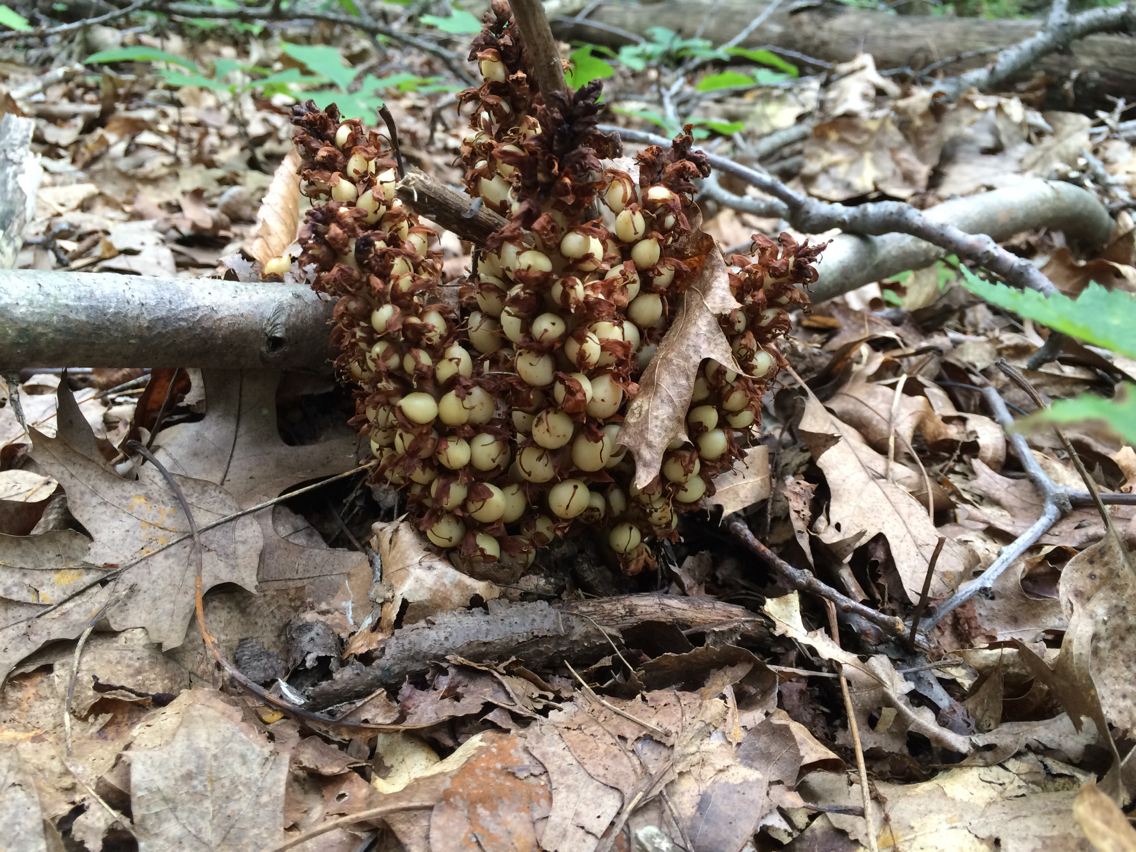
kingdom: Plantae
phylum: Tracheophyta
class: Magnoliopsida
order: Lamiales
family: Orobanchaceae
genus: Conopholis
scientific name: Conopholis americana
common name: American cancer-root
